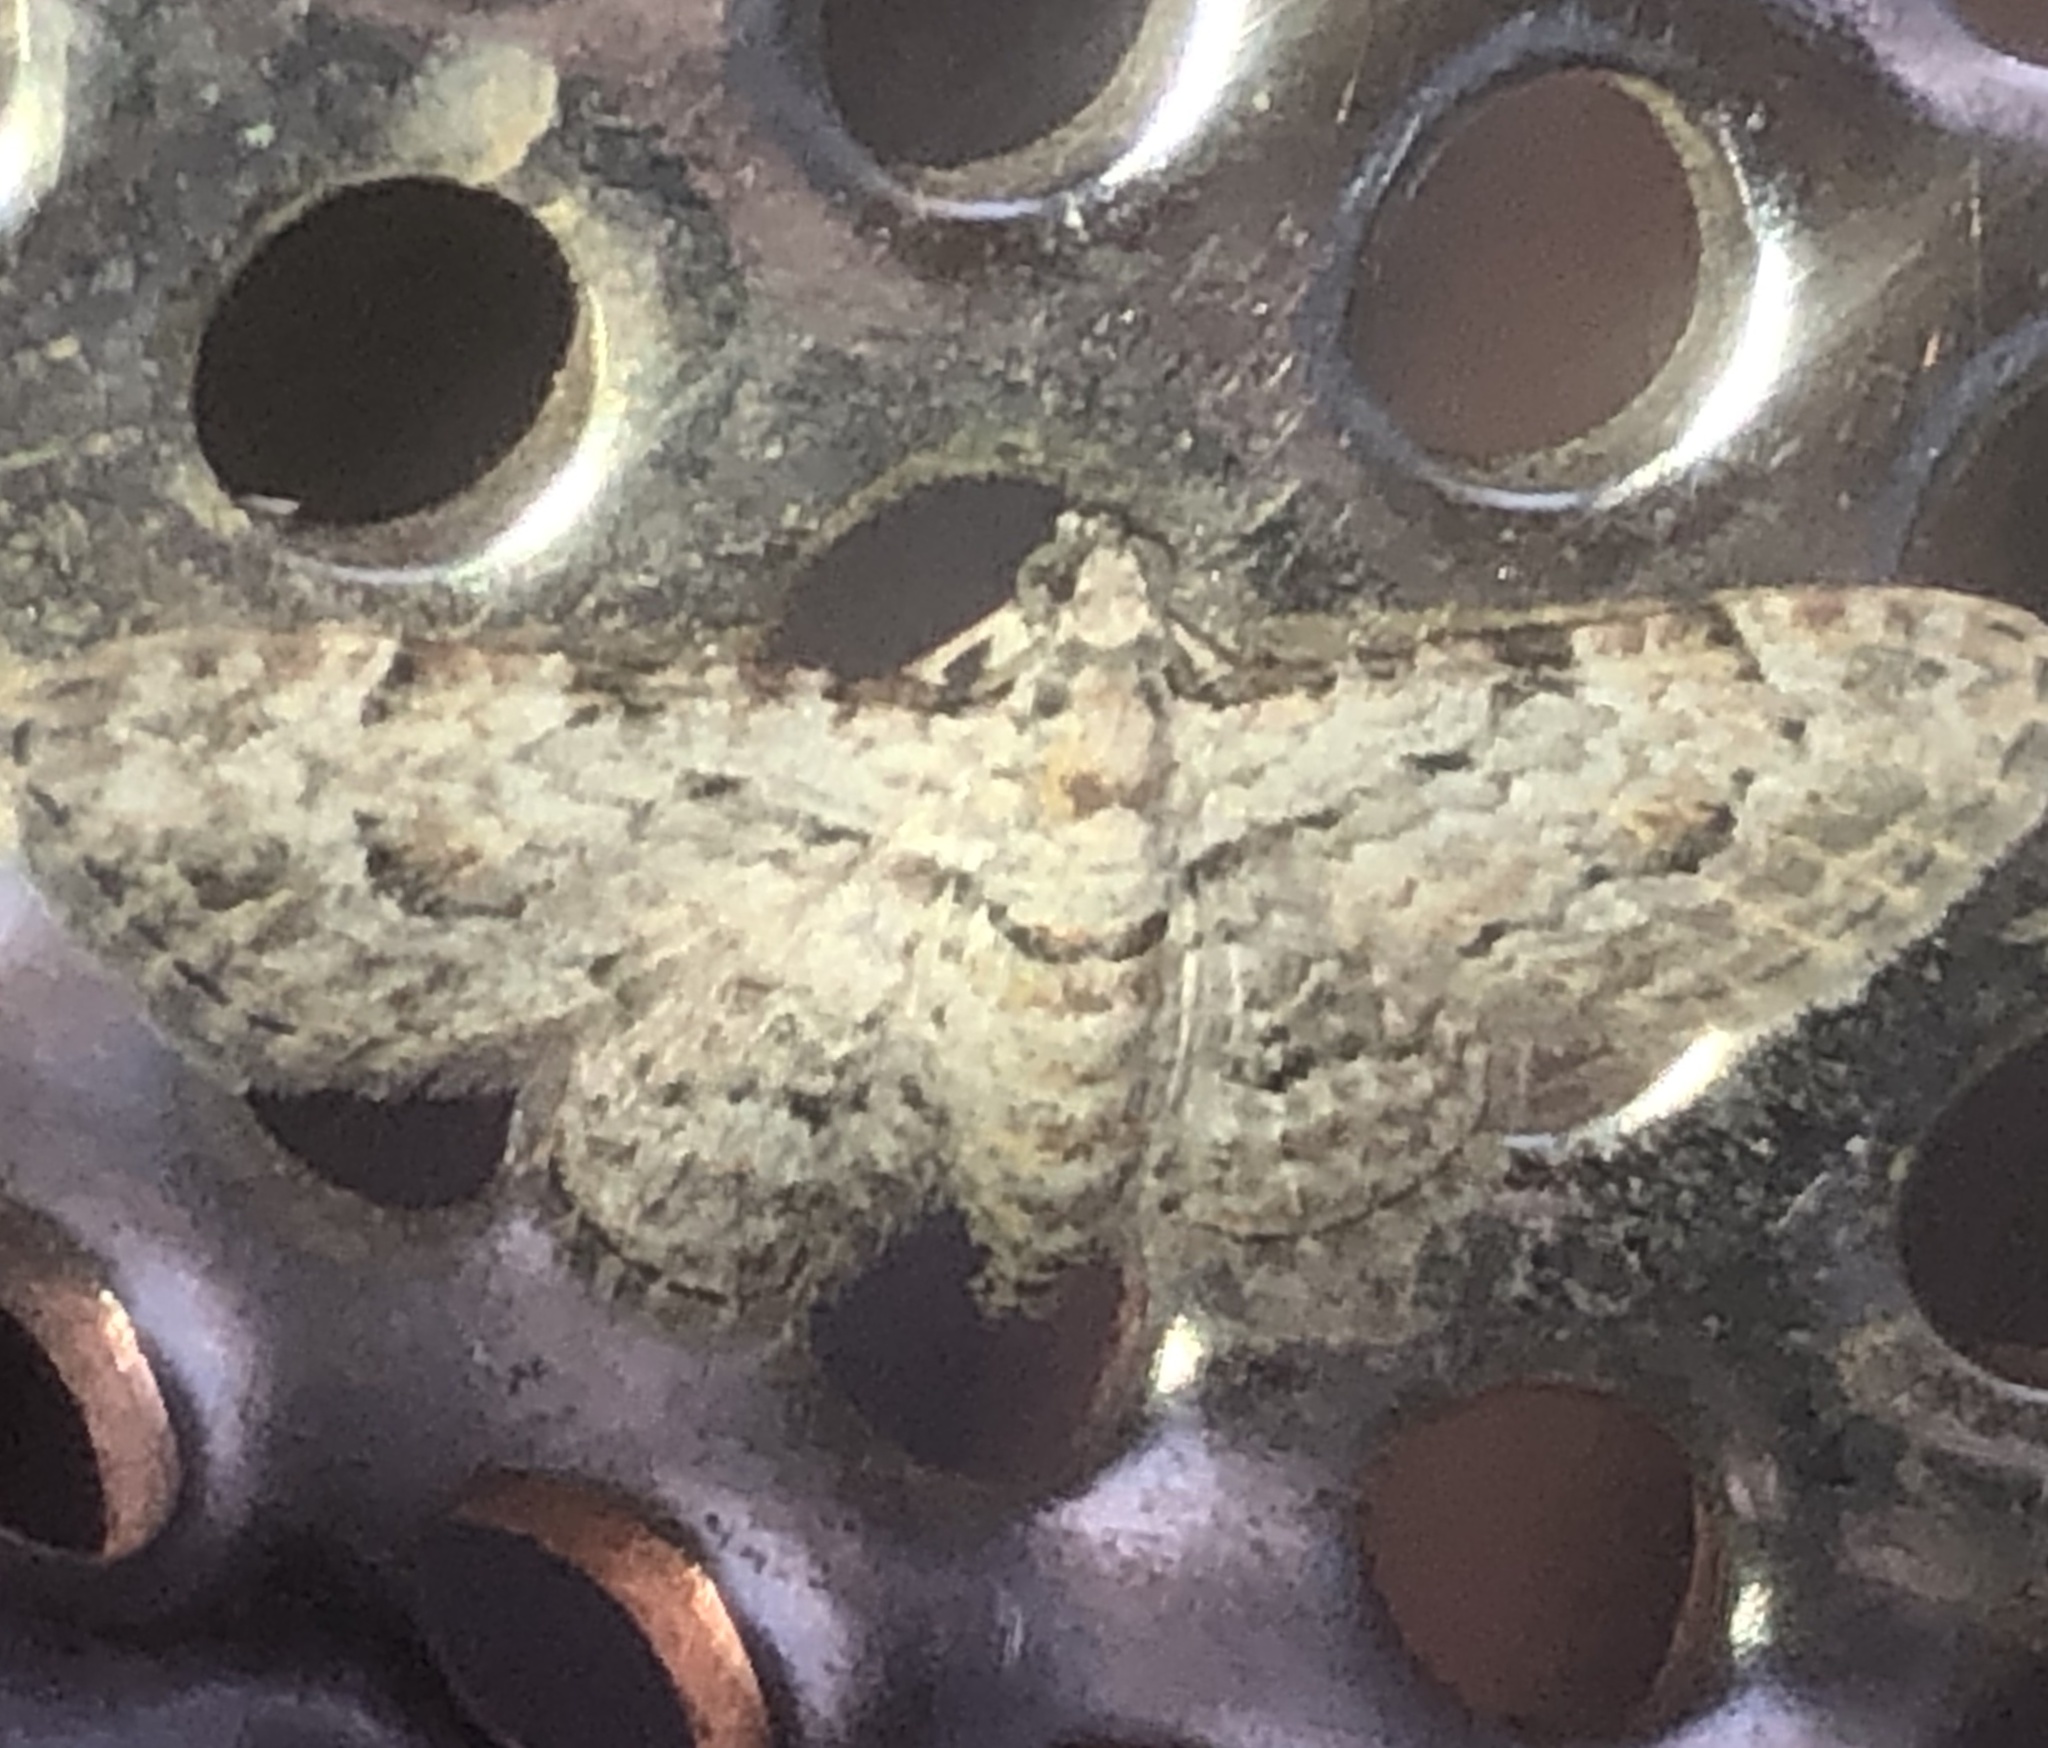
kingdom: Animalia
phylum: Arthropoda
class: Insecta
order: Lepidoptera
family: Geometridae
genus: Chloroclystis
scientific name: Chloroclystis insigillata
